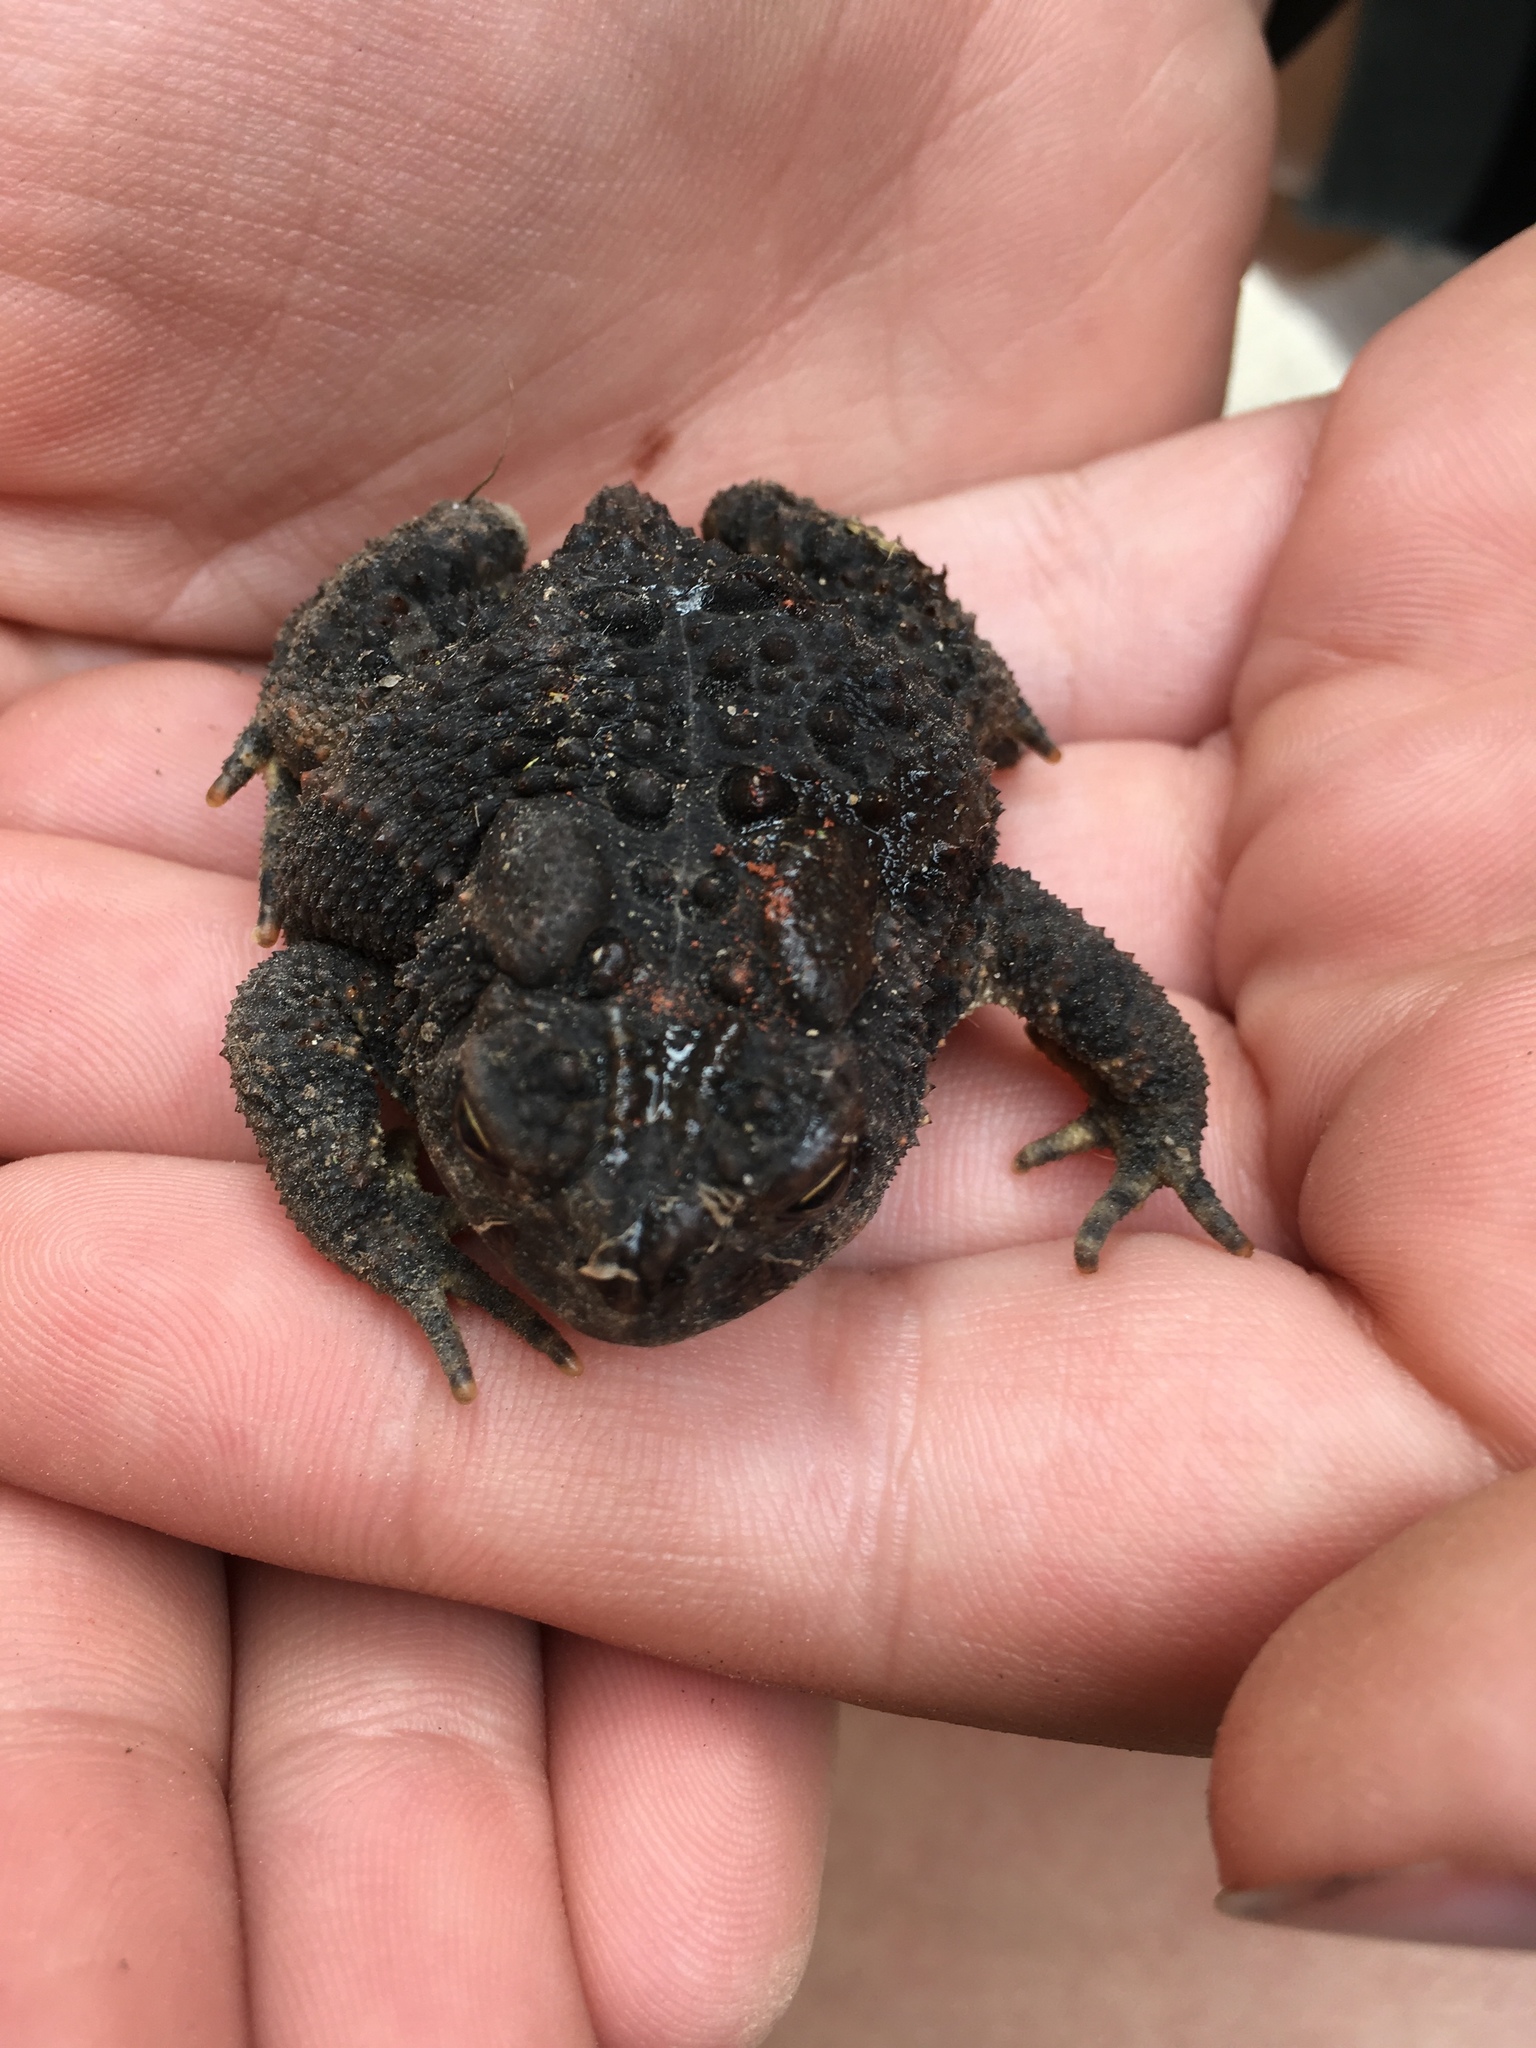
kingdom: Animalia
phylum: Chordata
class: Amphibia
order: Anura
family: Bufonidae
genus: Anaxyrus
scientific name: Anaxyrus americanus
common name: American toad
